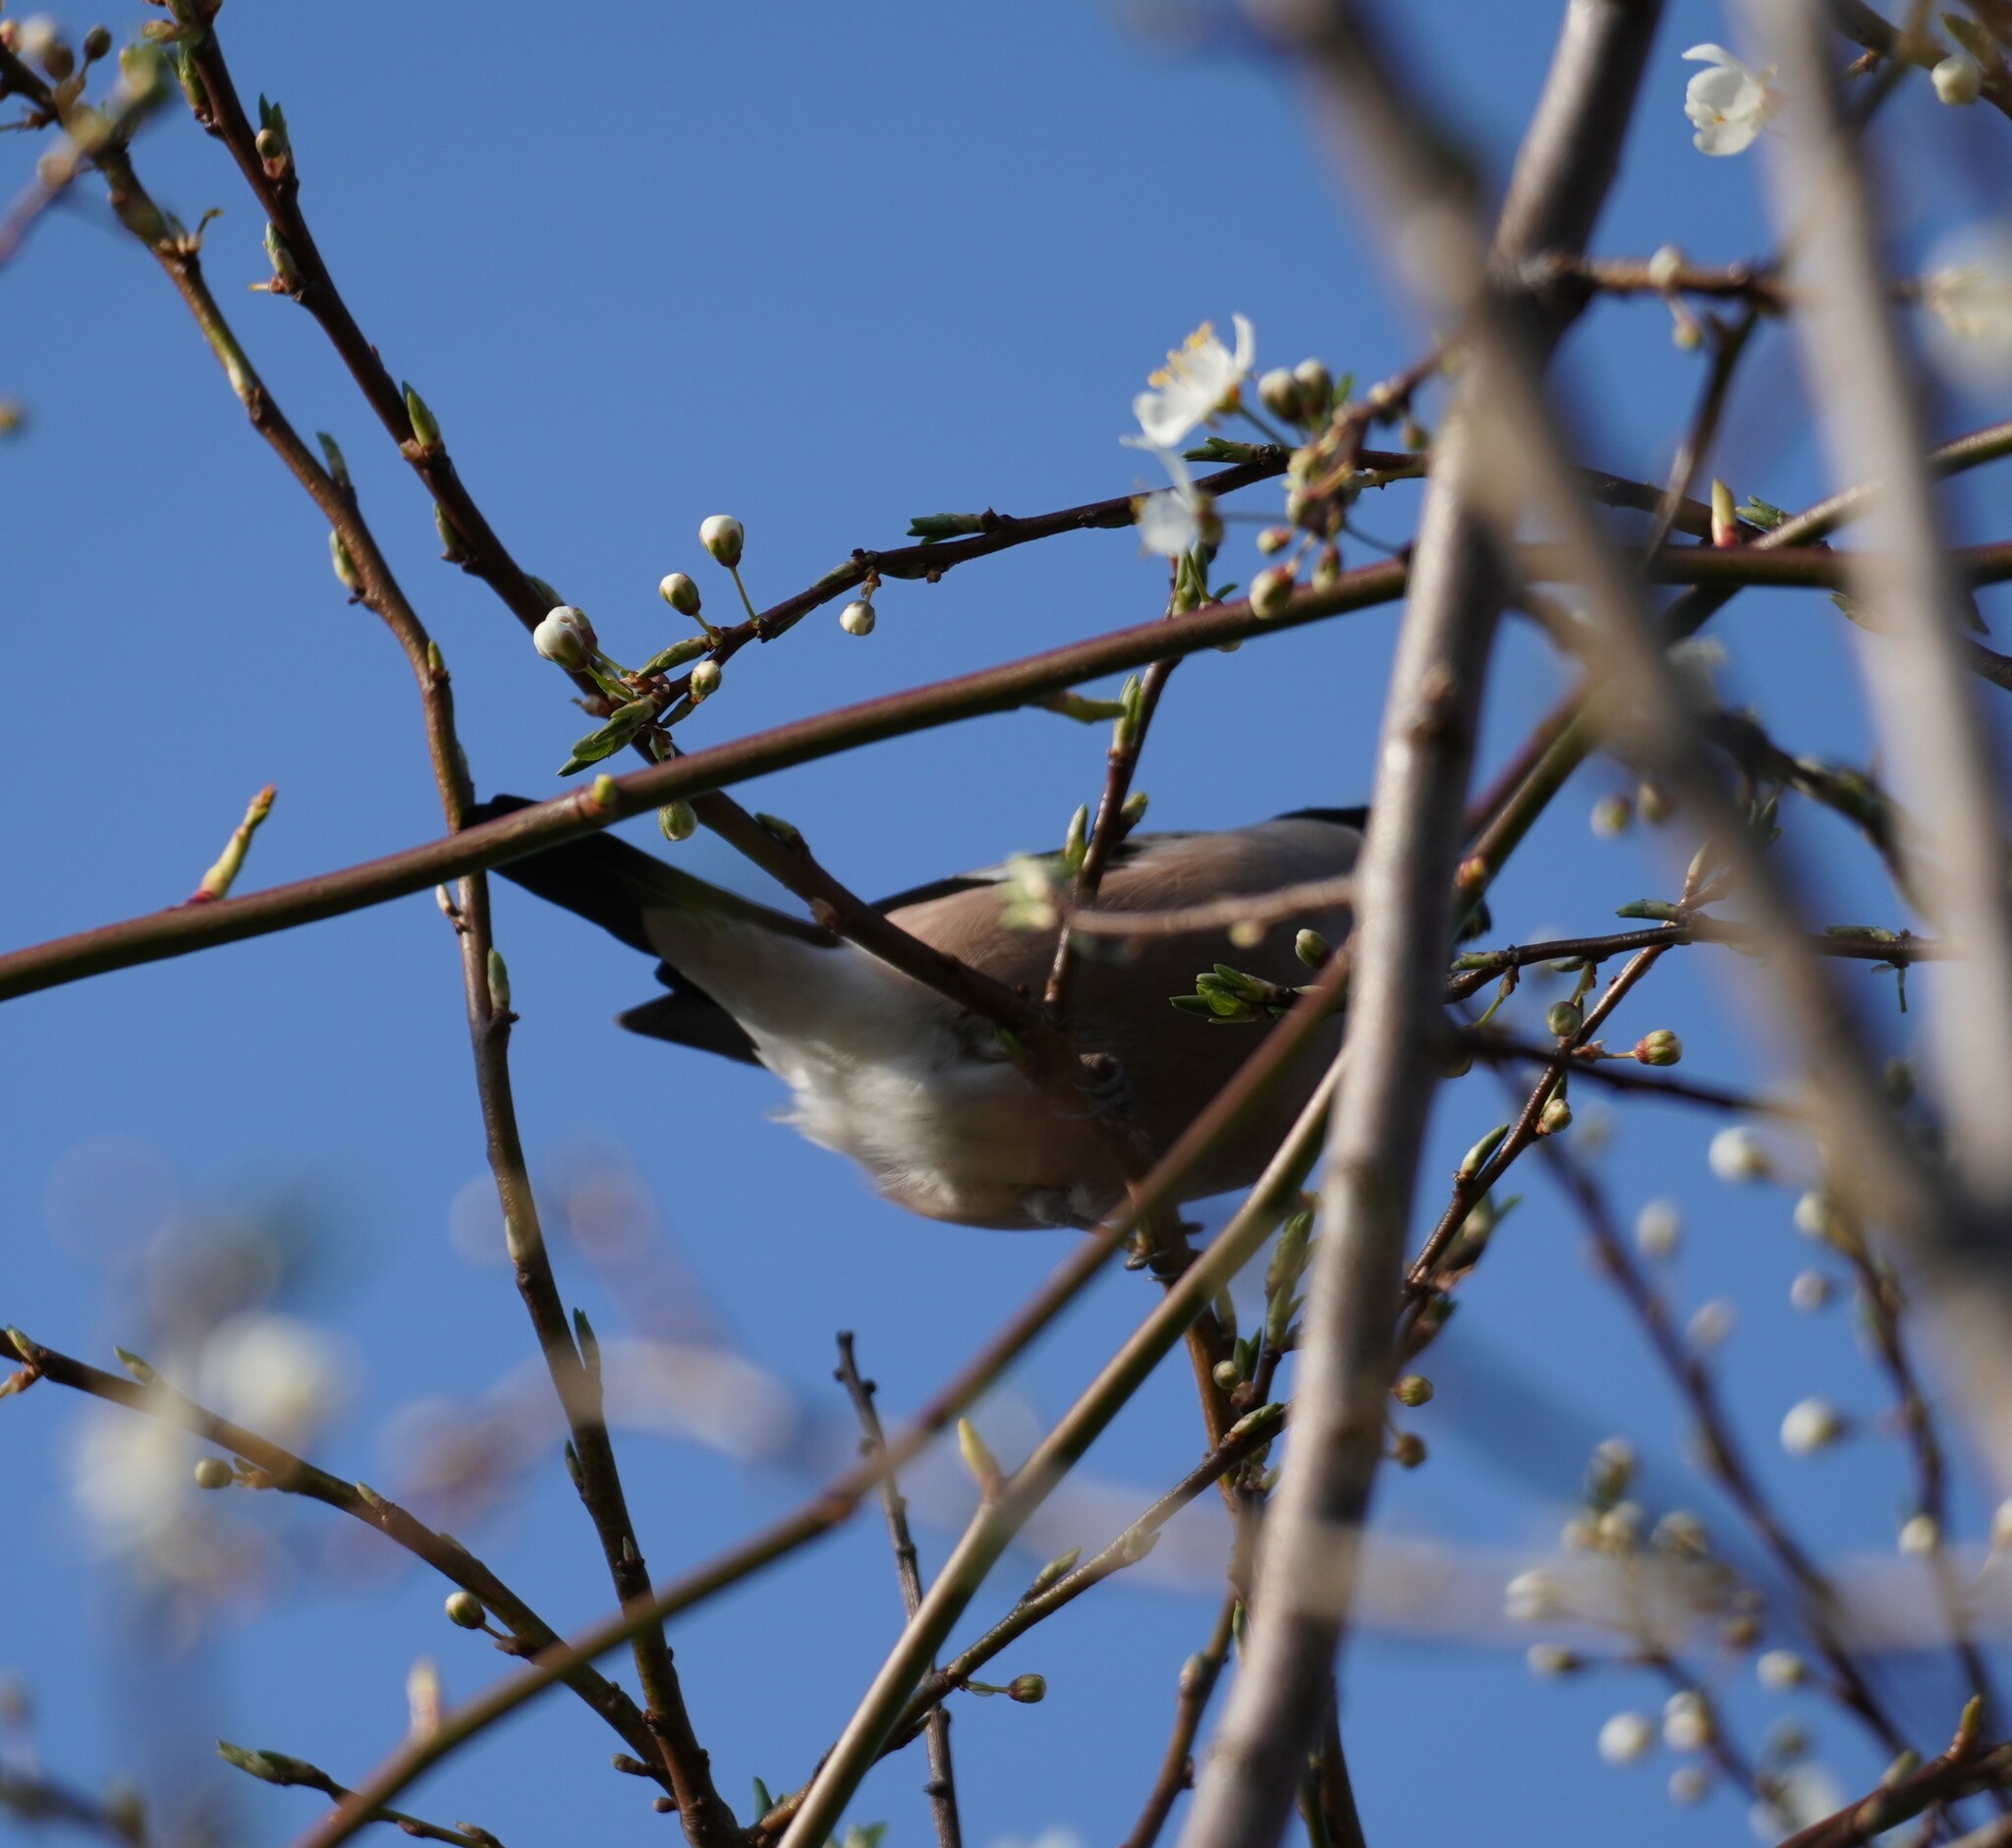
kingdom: Animalia
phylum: Chordata
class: Aves
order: Passeriformes
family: Fringillidae
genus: Pyrrhula
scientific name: Pyrrhula pyrrhula
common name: Eurasian bullfinch
